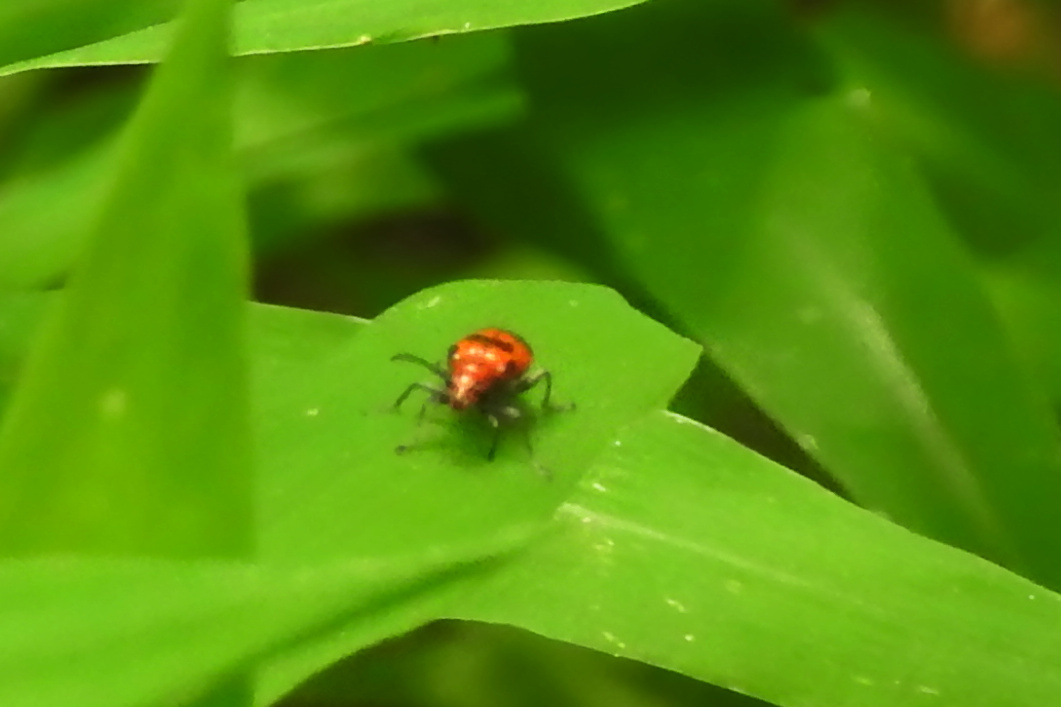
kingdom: Animalia
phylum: Arthropoda
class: Insecta
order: Coleoptera
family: Chrysomelidae
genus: Neolema
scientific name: Neolema sexpunctata
